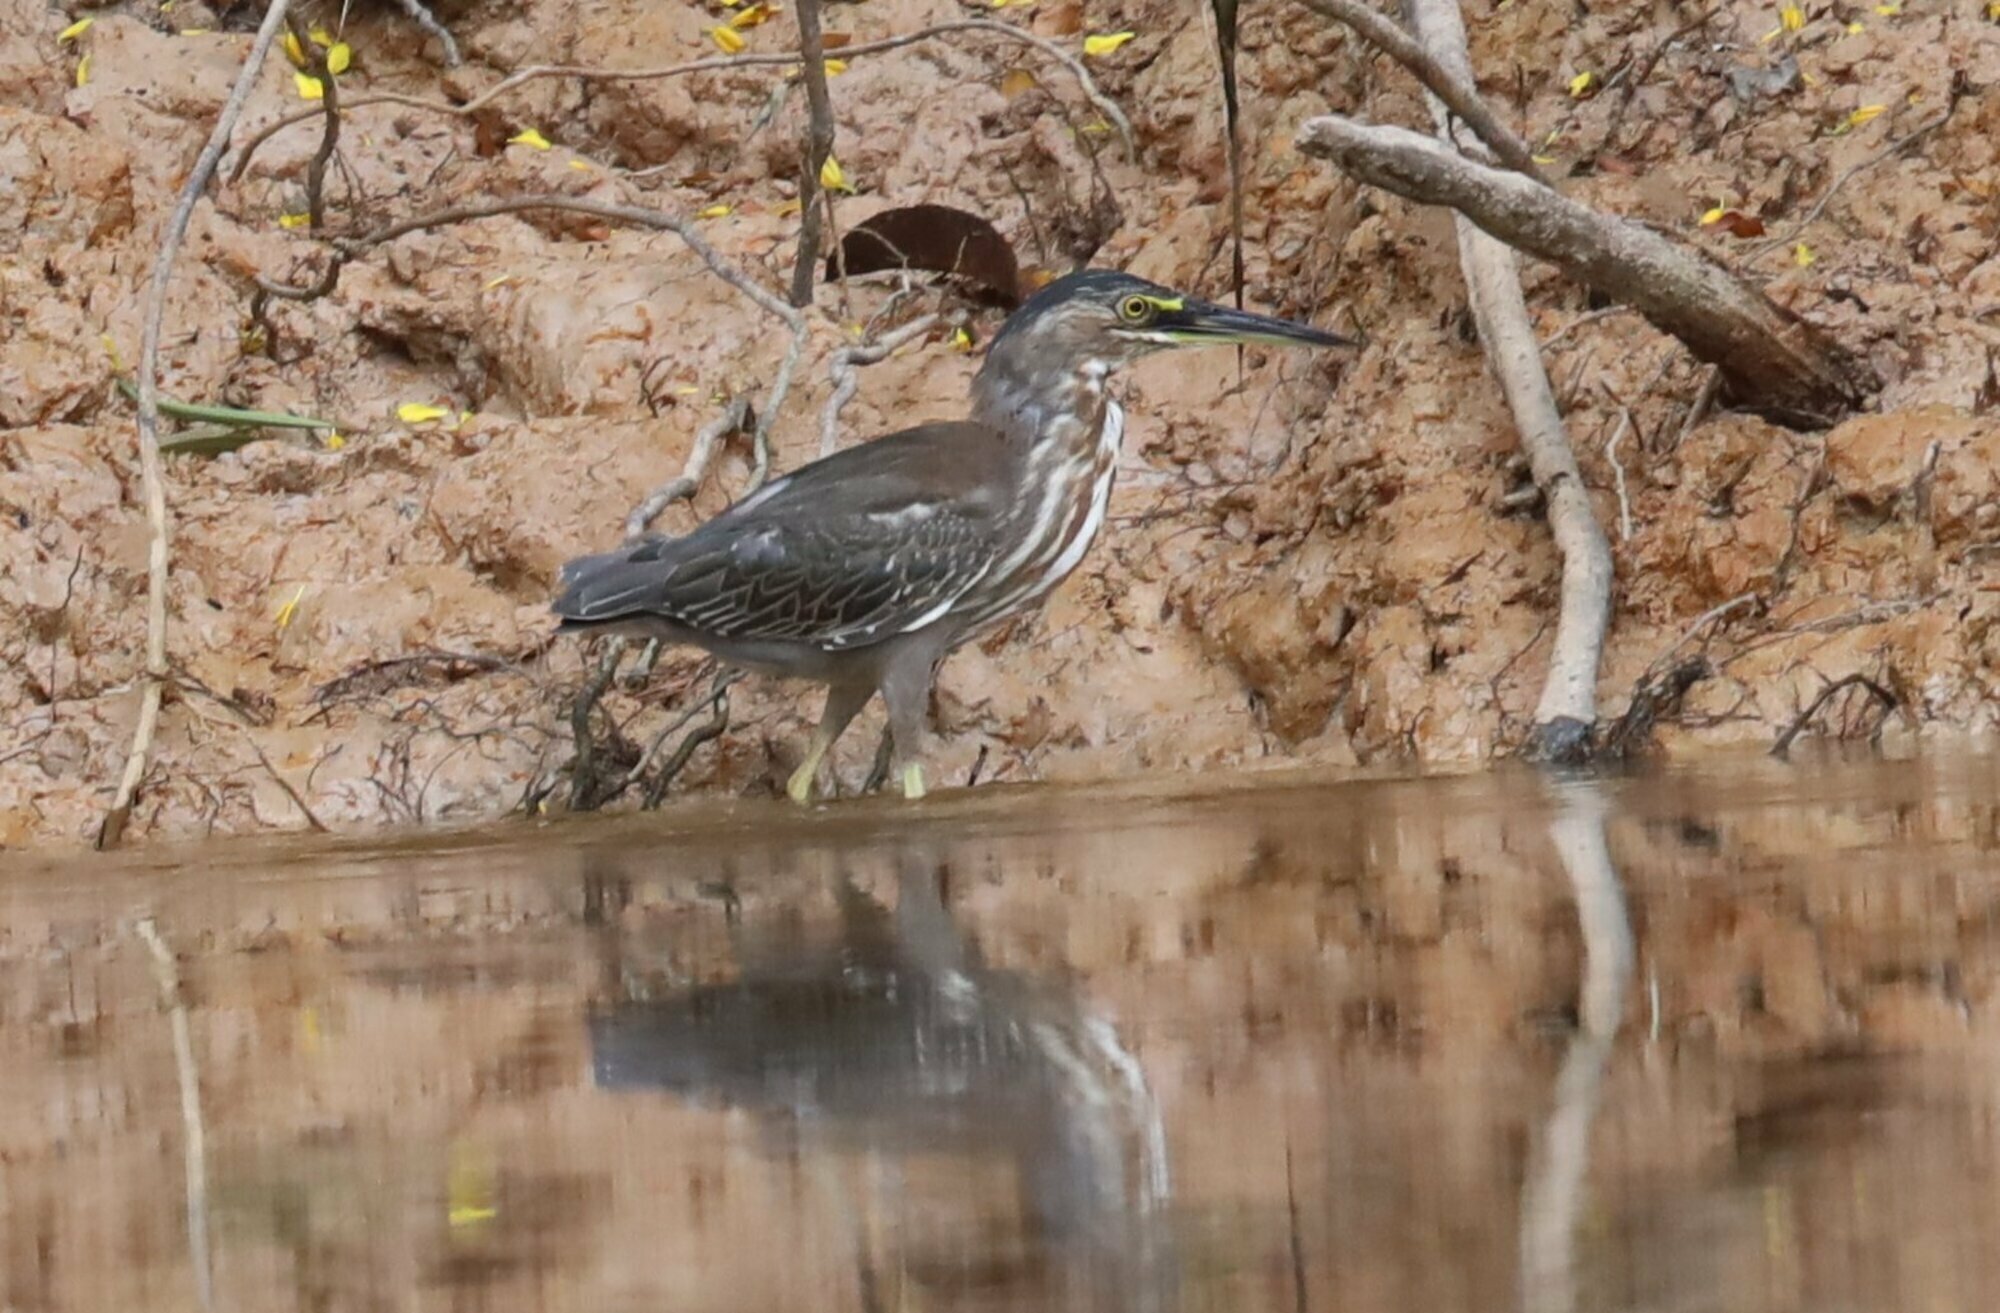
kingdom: Animalia
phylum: Chordata
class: Aves
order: Pelecaniformes
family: Ardeidae
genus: Butorides
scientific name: Butorides striata
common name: Striated heron
